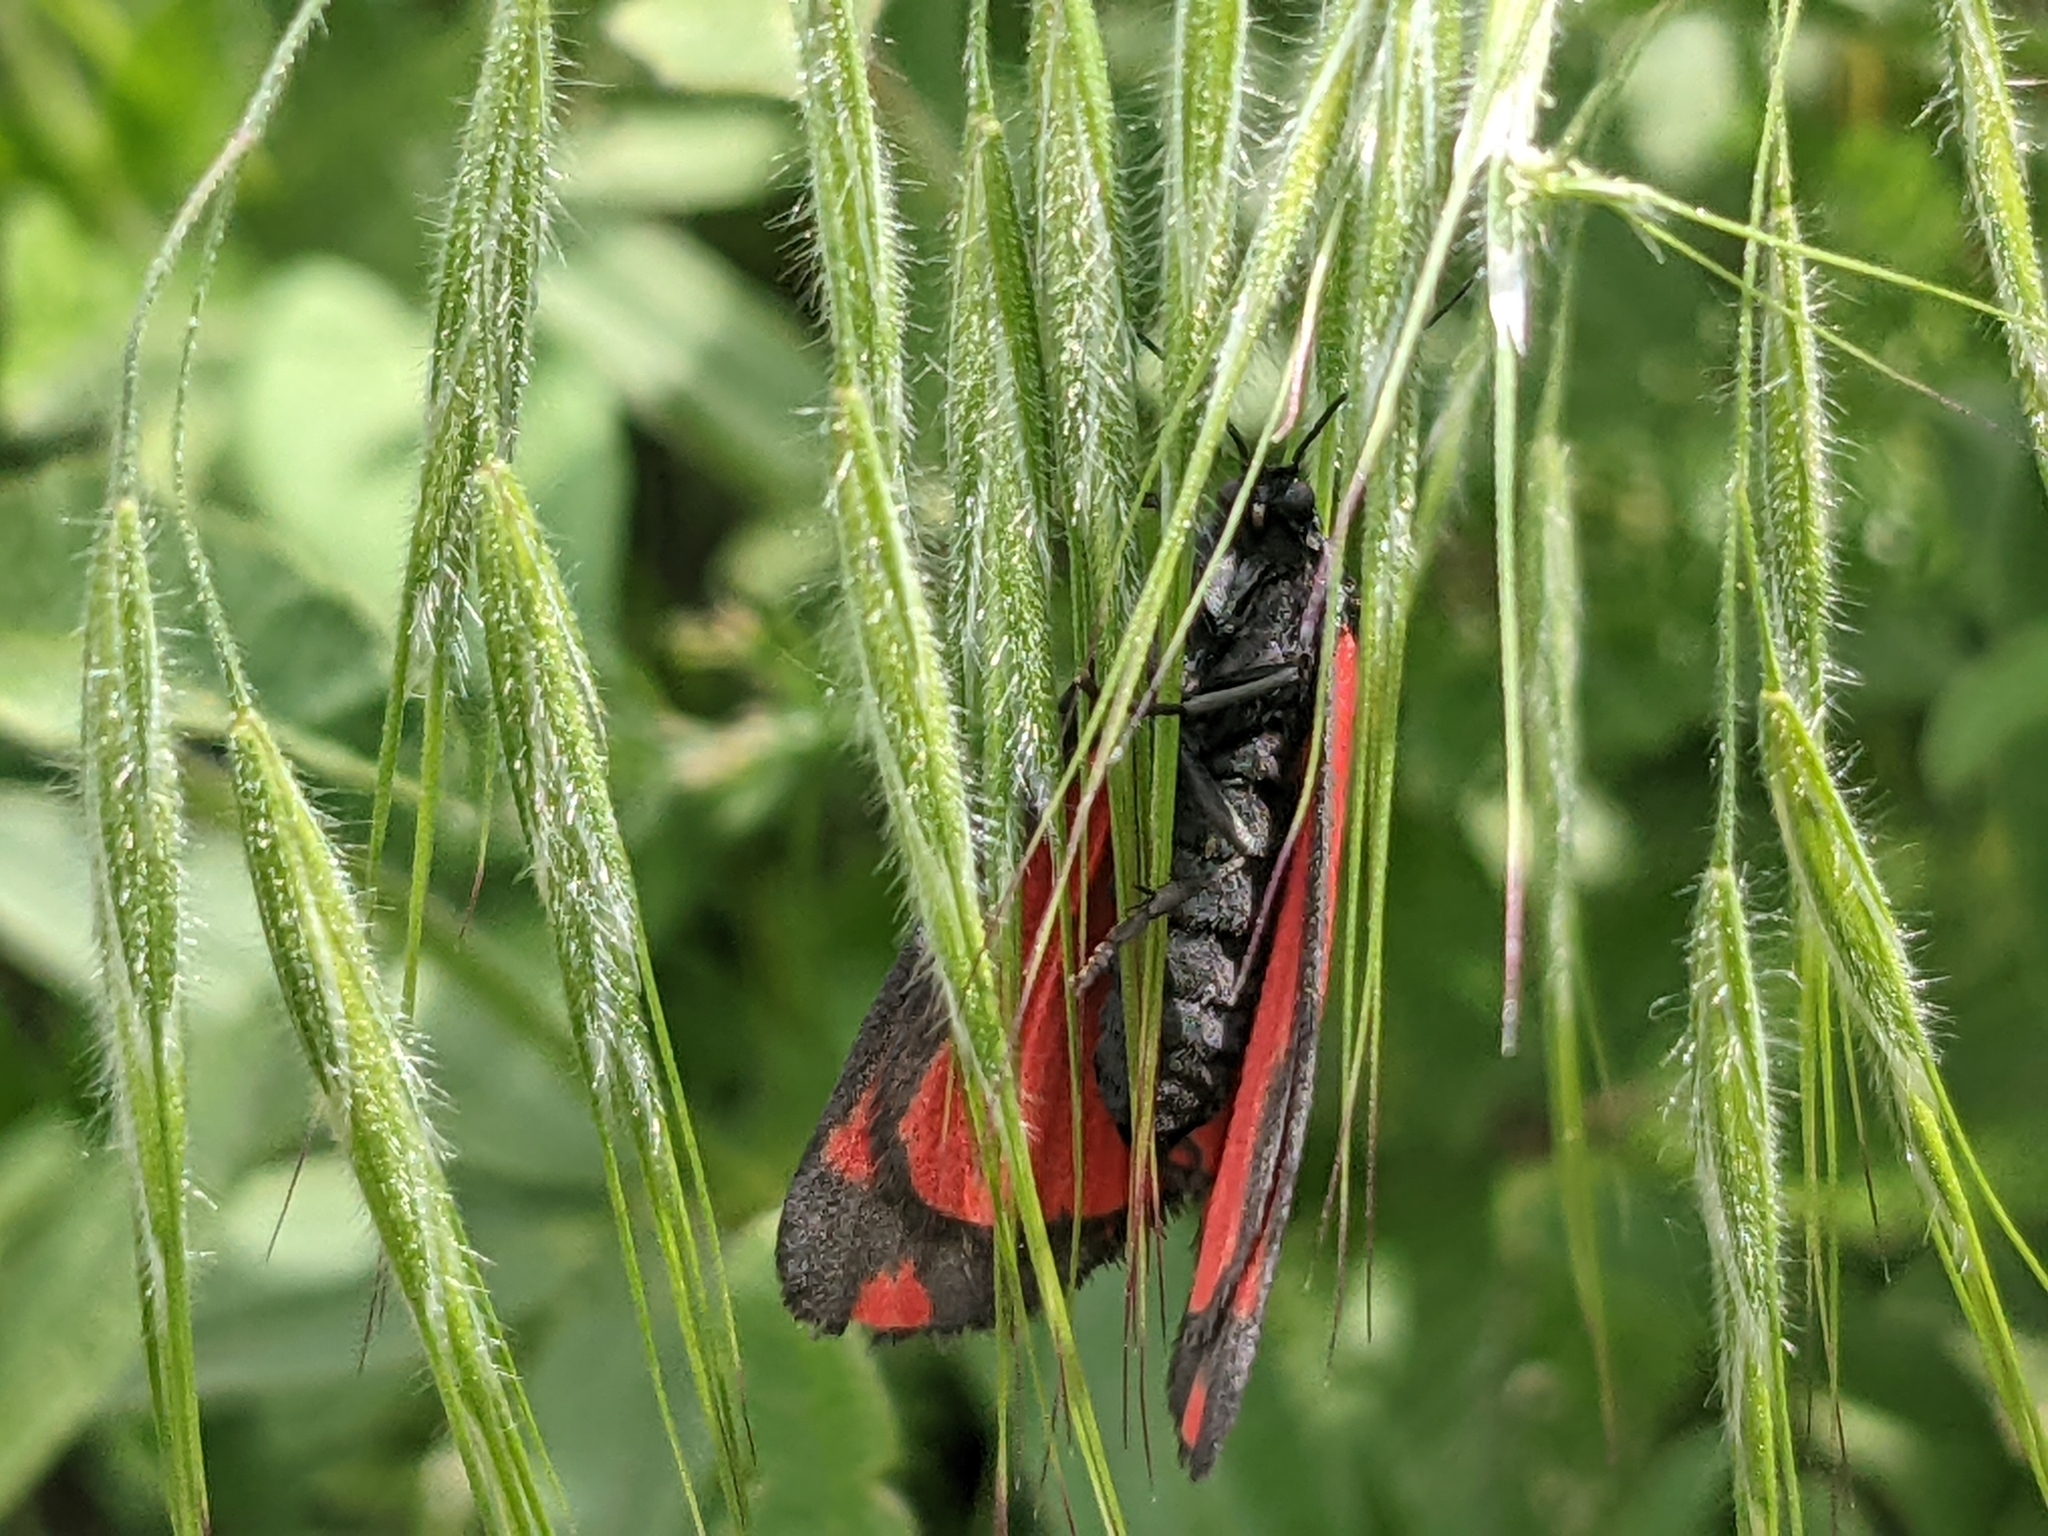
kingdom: Animalia
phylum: Arthropoda
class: Insecta
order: Lepidoptera
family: Erebidae
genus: Tyria
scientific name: Tyria jacobaeae
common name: Cinnabar
